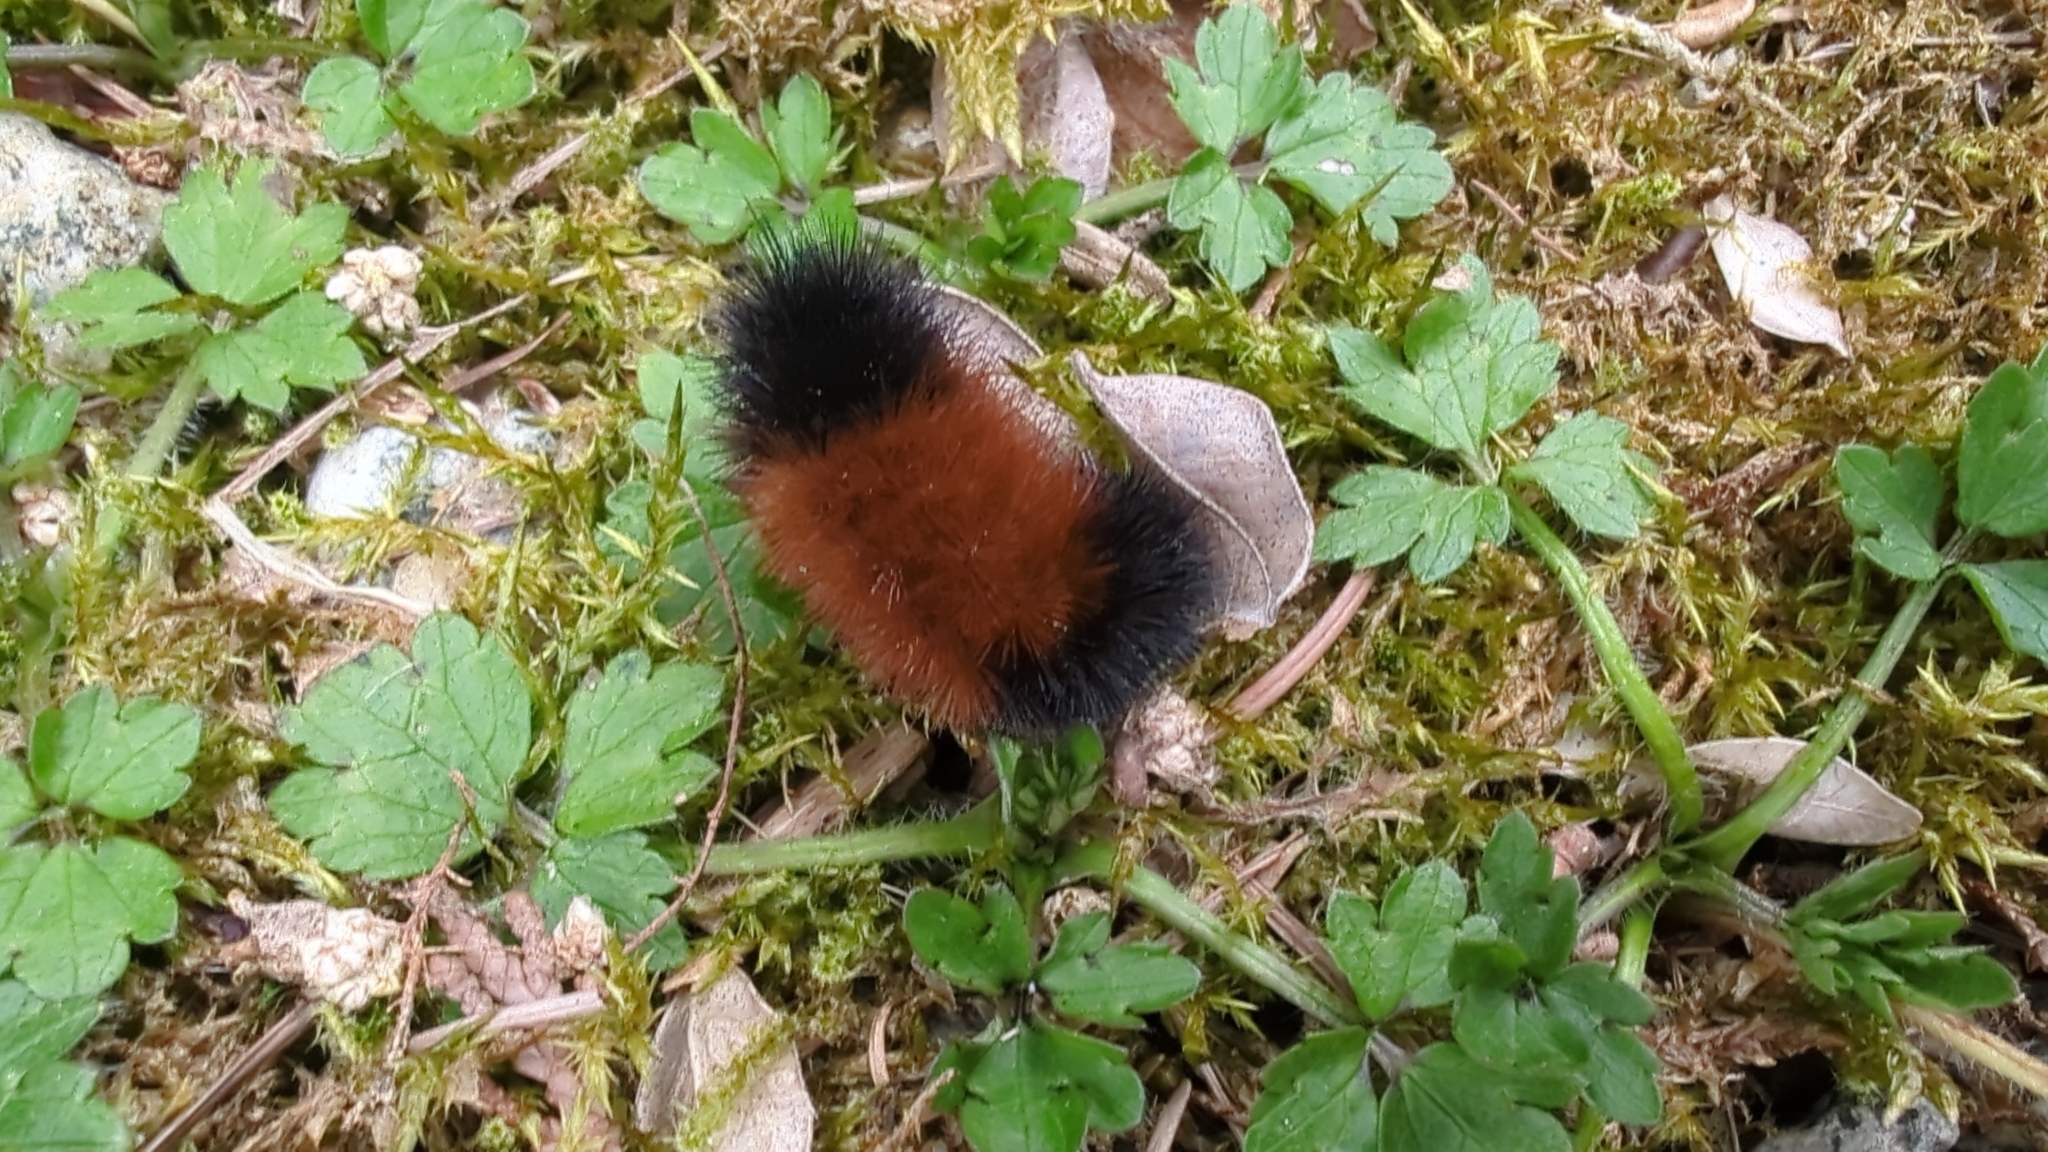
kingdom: Animalia
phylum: Arthropoda
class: Insecta
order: Lepidoptera
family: Erebidae
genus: Pyrrharctia
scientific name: Pyrrharctia isabella
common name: Isabella tiger moth
